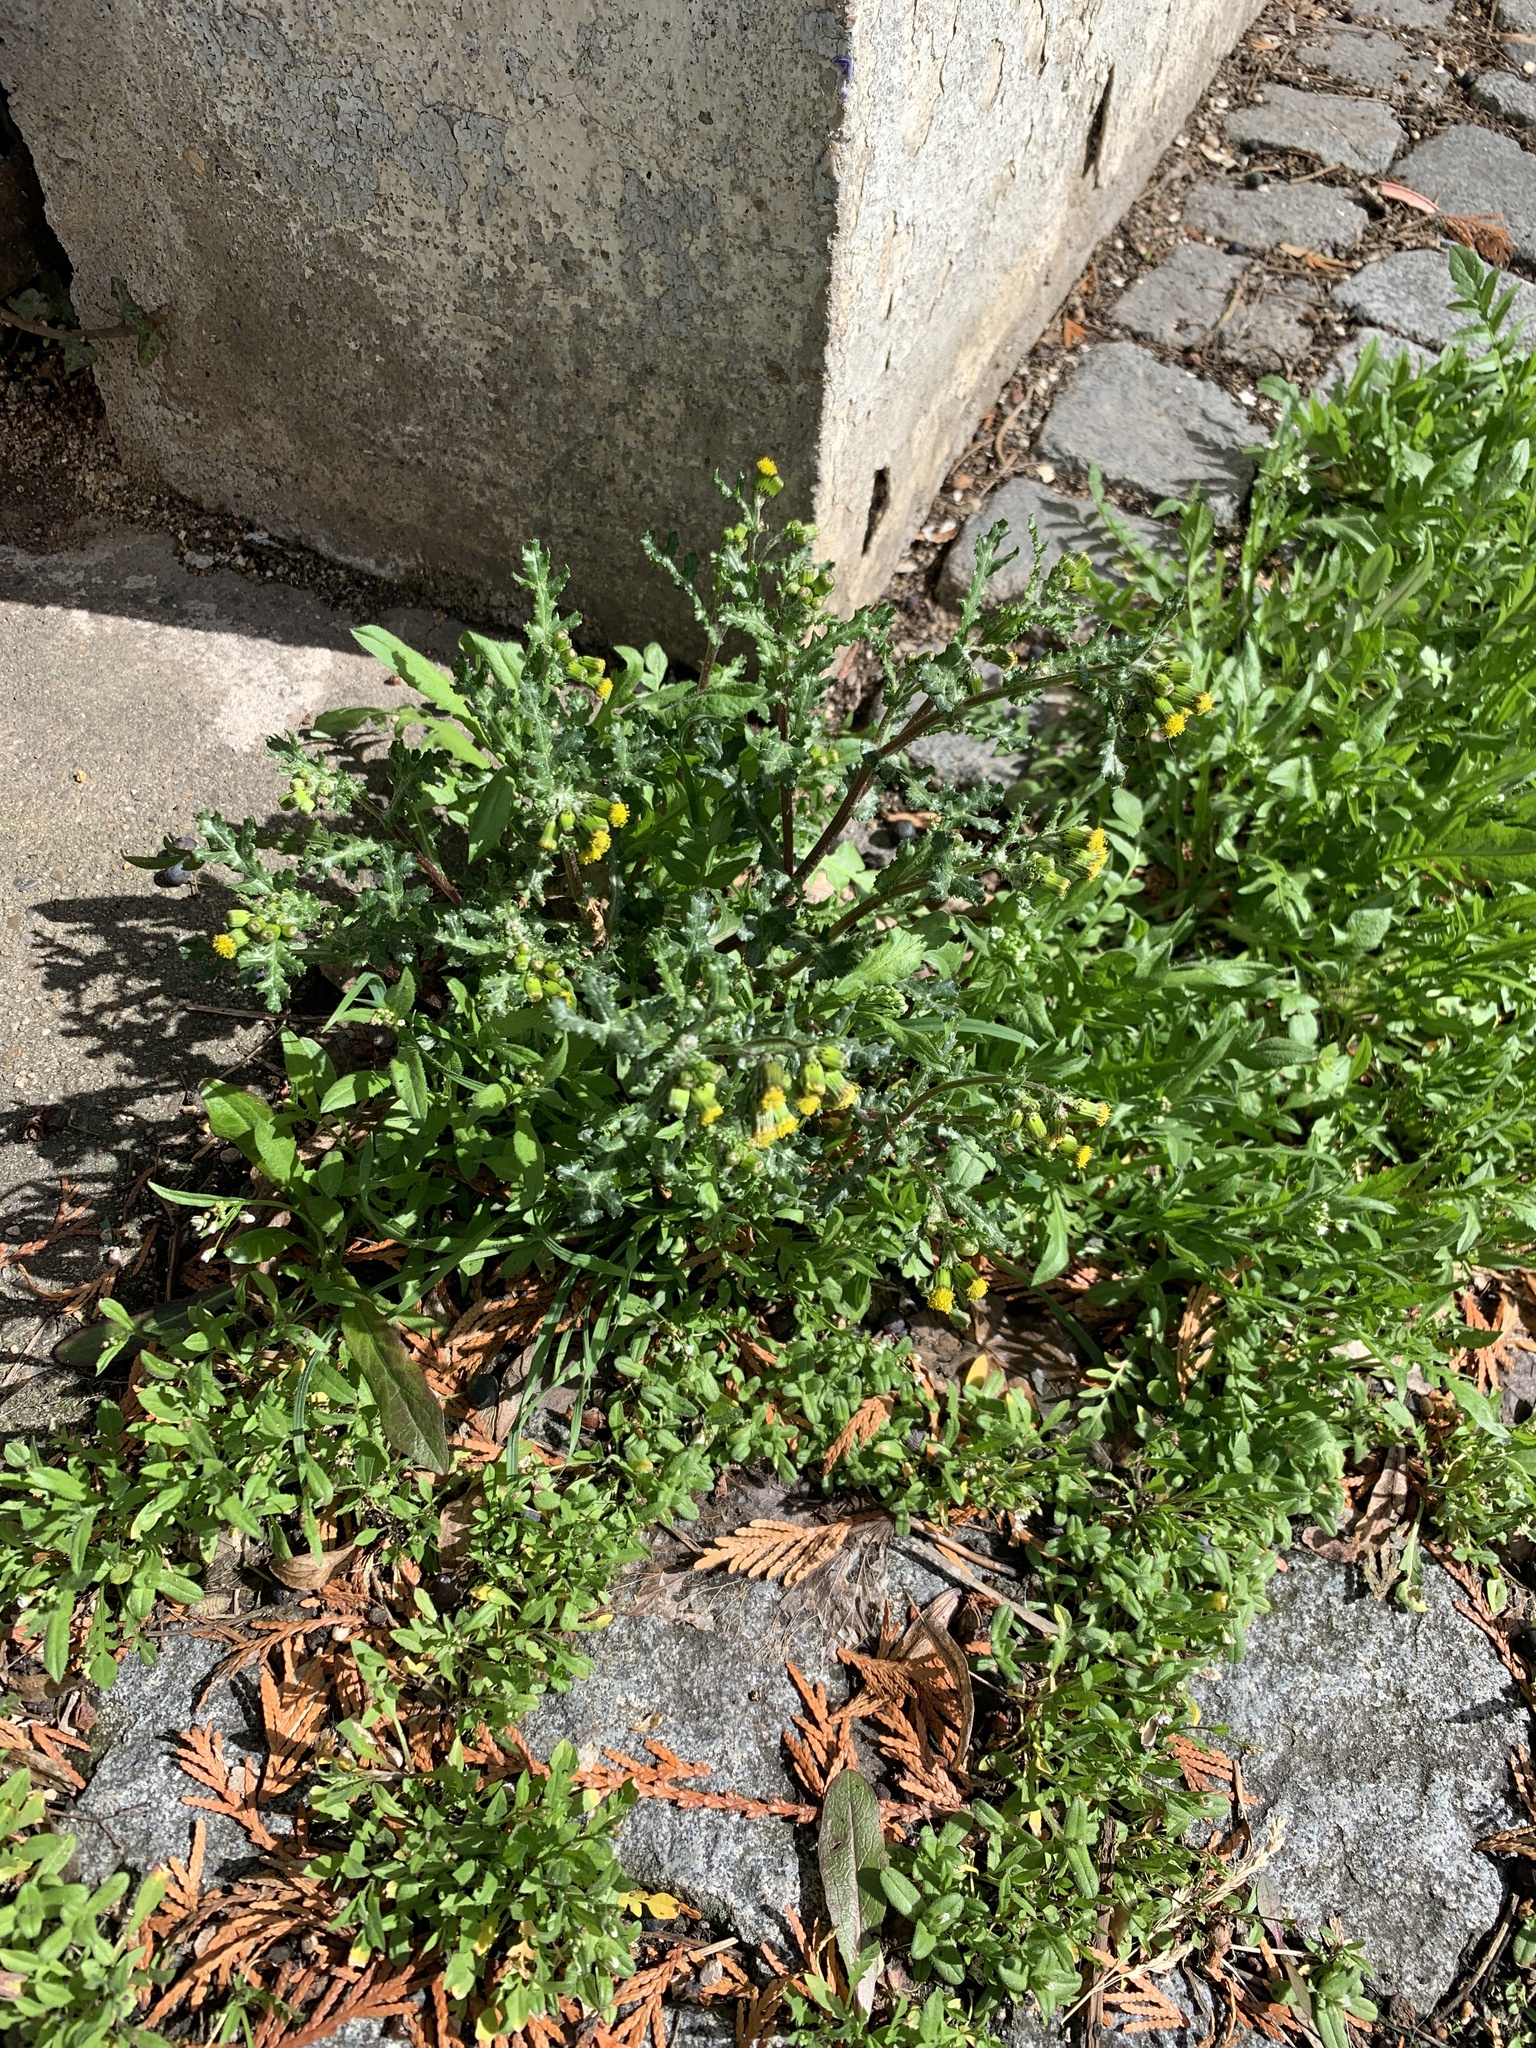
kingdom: Plantae
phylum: Tracheophyta
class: Magnoliopsida
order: Asterales
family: Asteraceae
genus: Senecio
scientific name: Senecio vulgaris
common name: Old-man-in-the-spring
